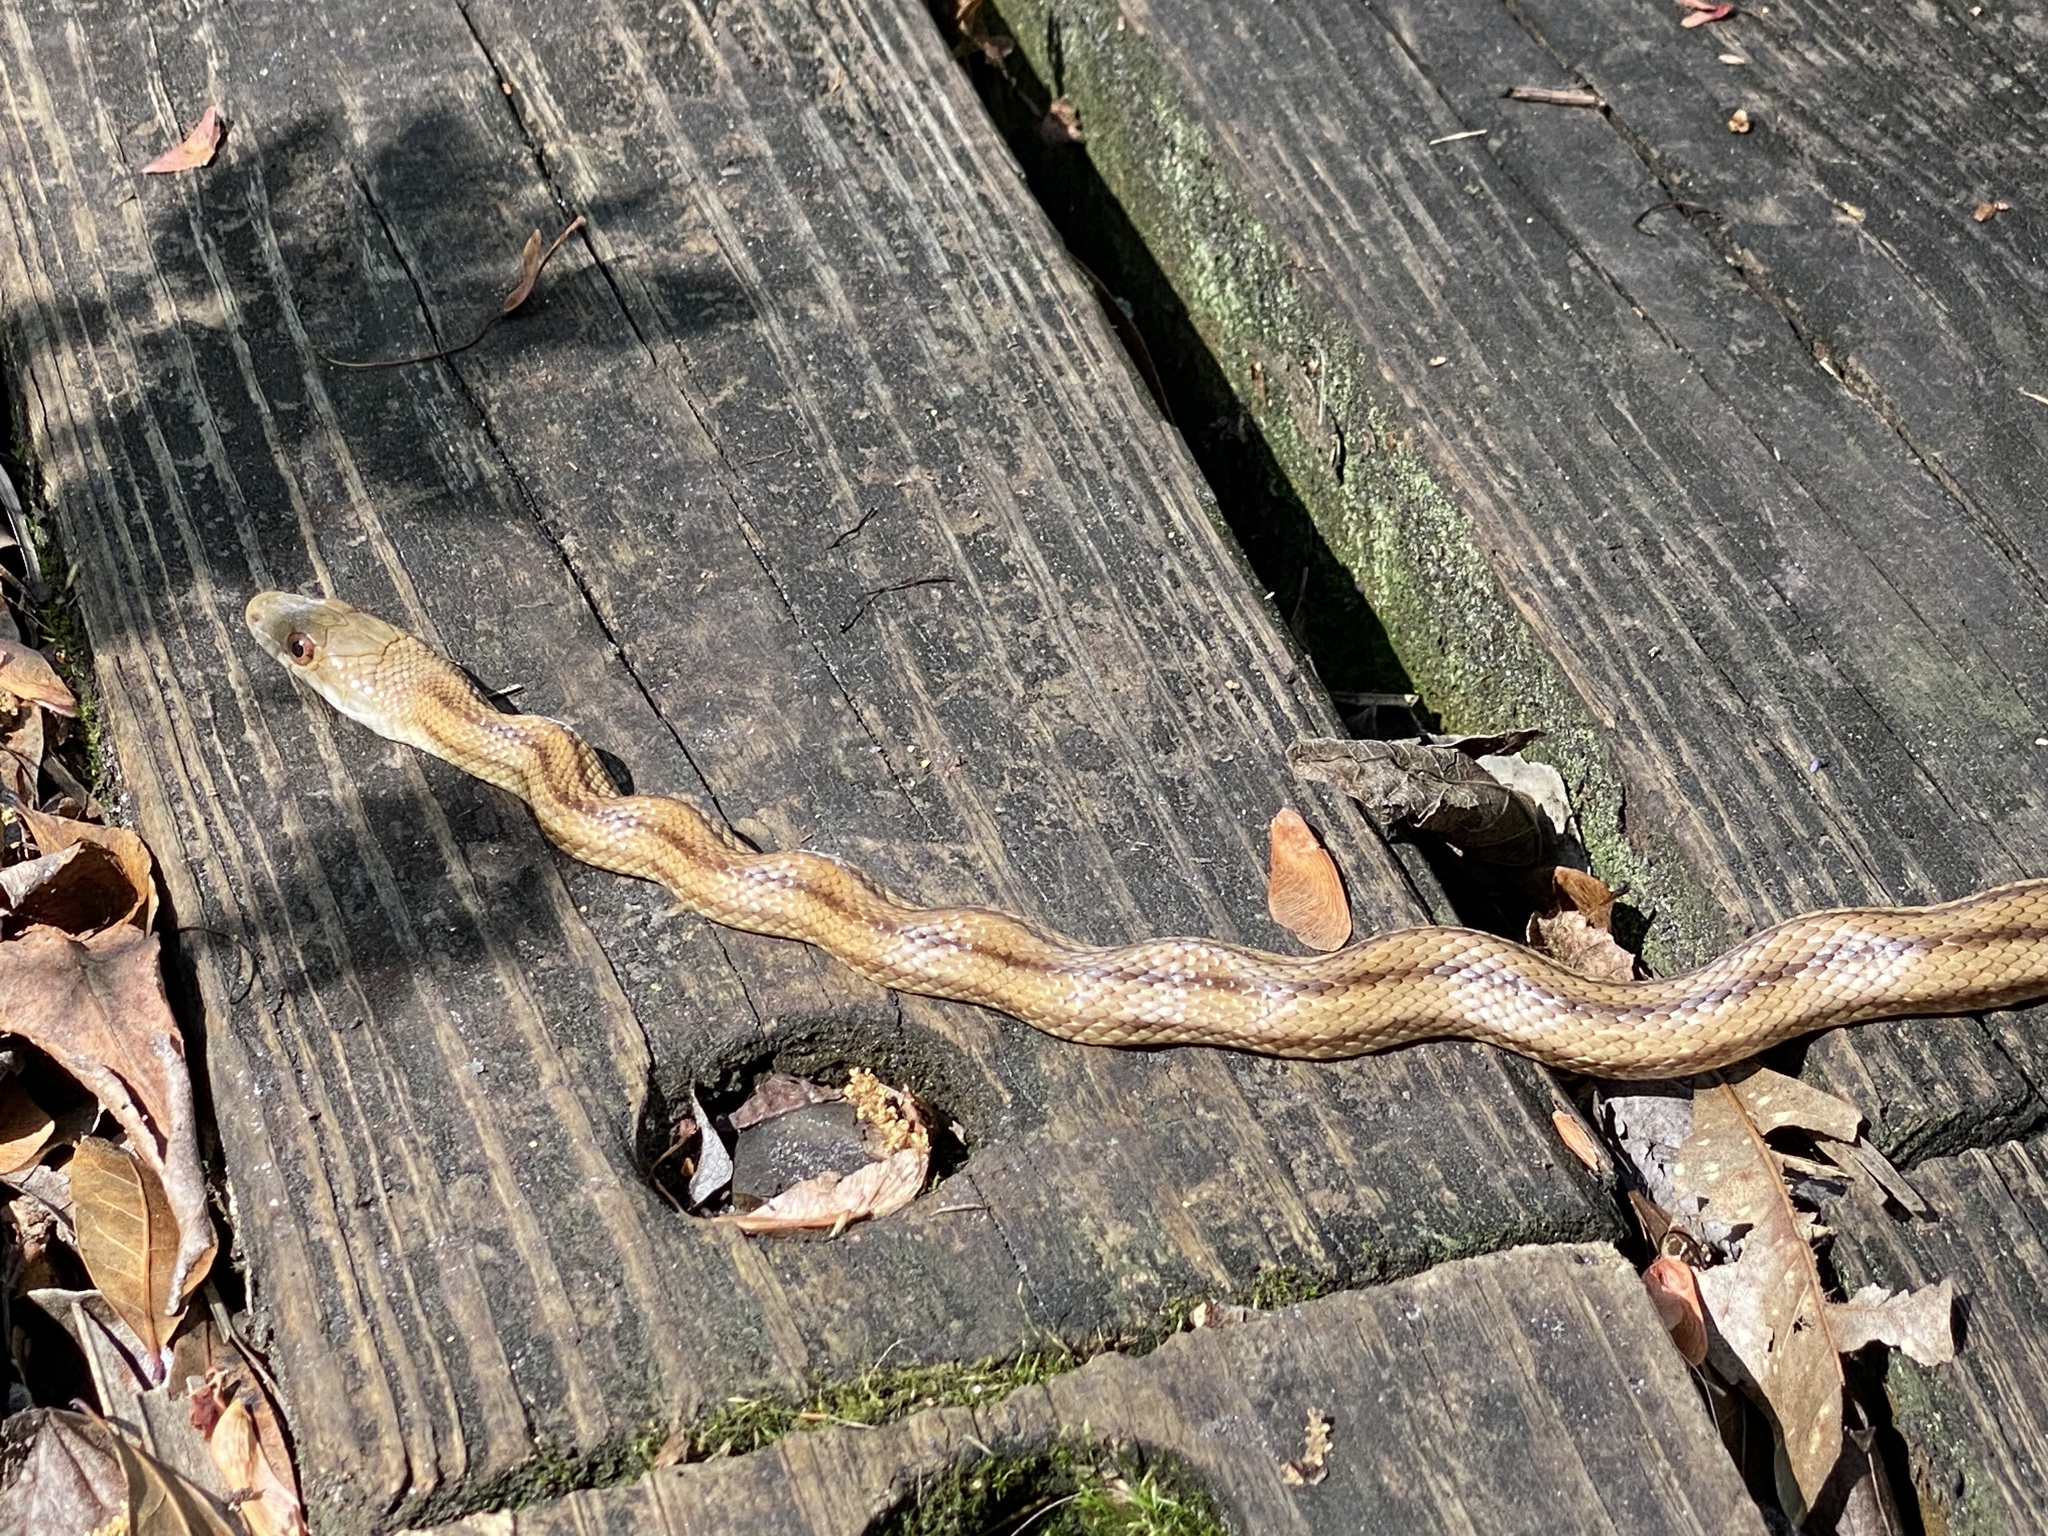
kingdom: Animalia
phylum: Chordata
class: Squamata
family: Colubridae
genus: Pantherophis
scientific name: Pantherophis alleghaniensis
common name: Eastern rat snake
